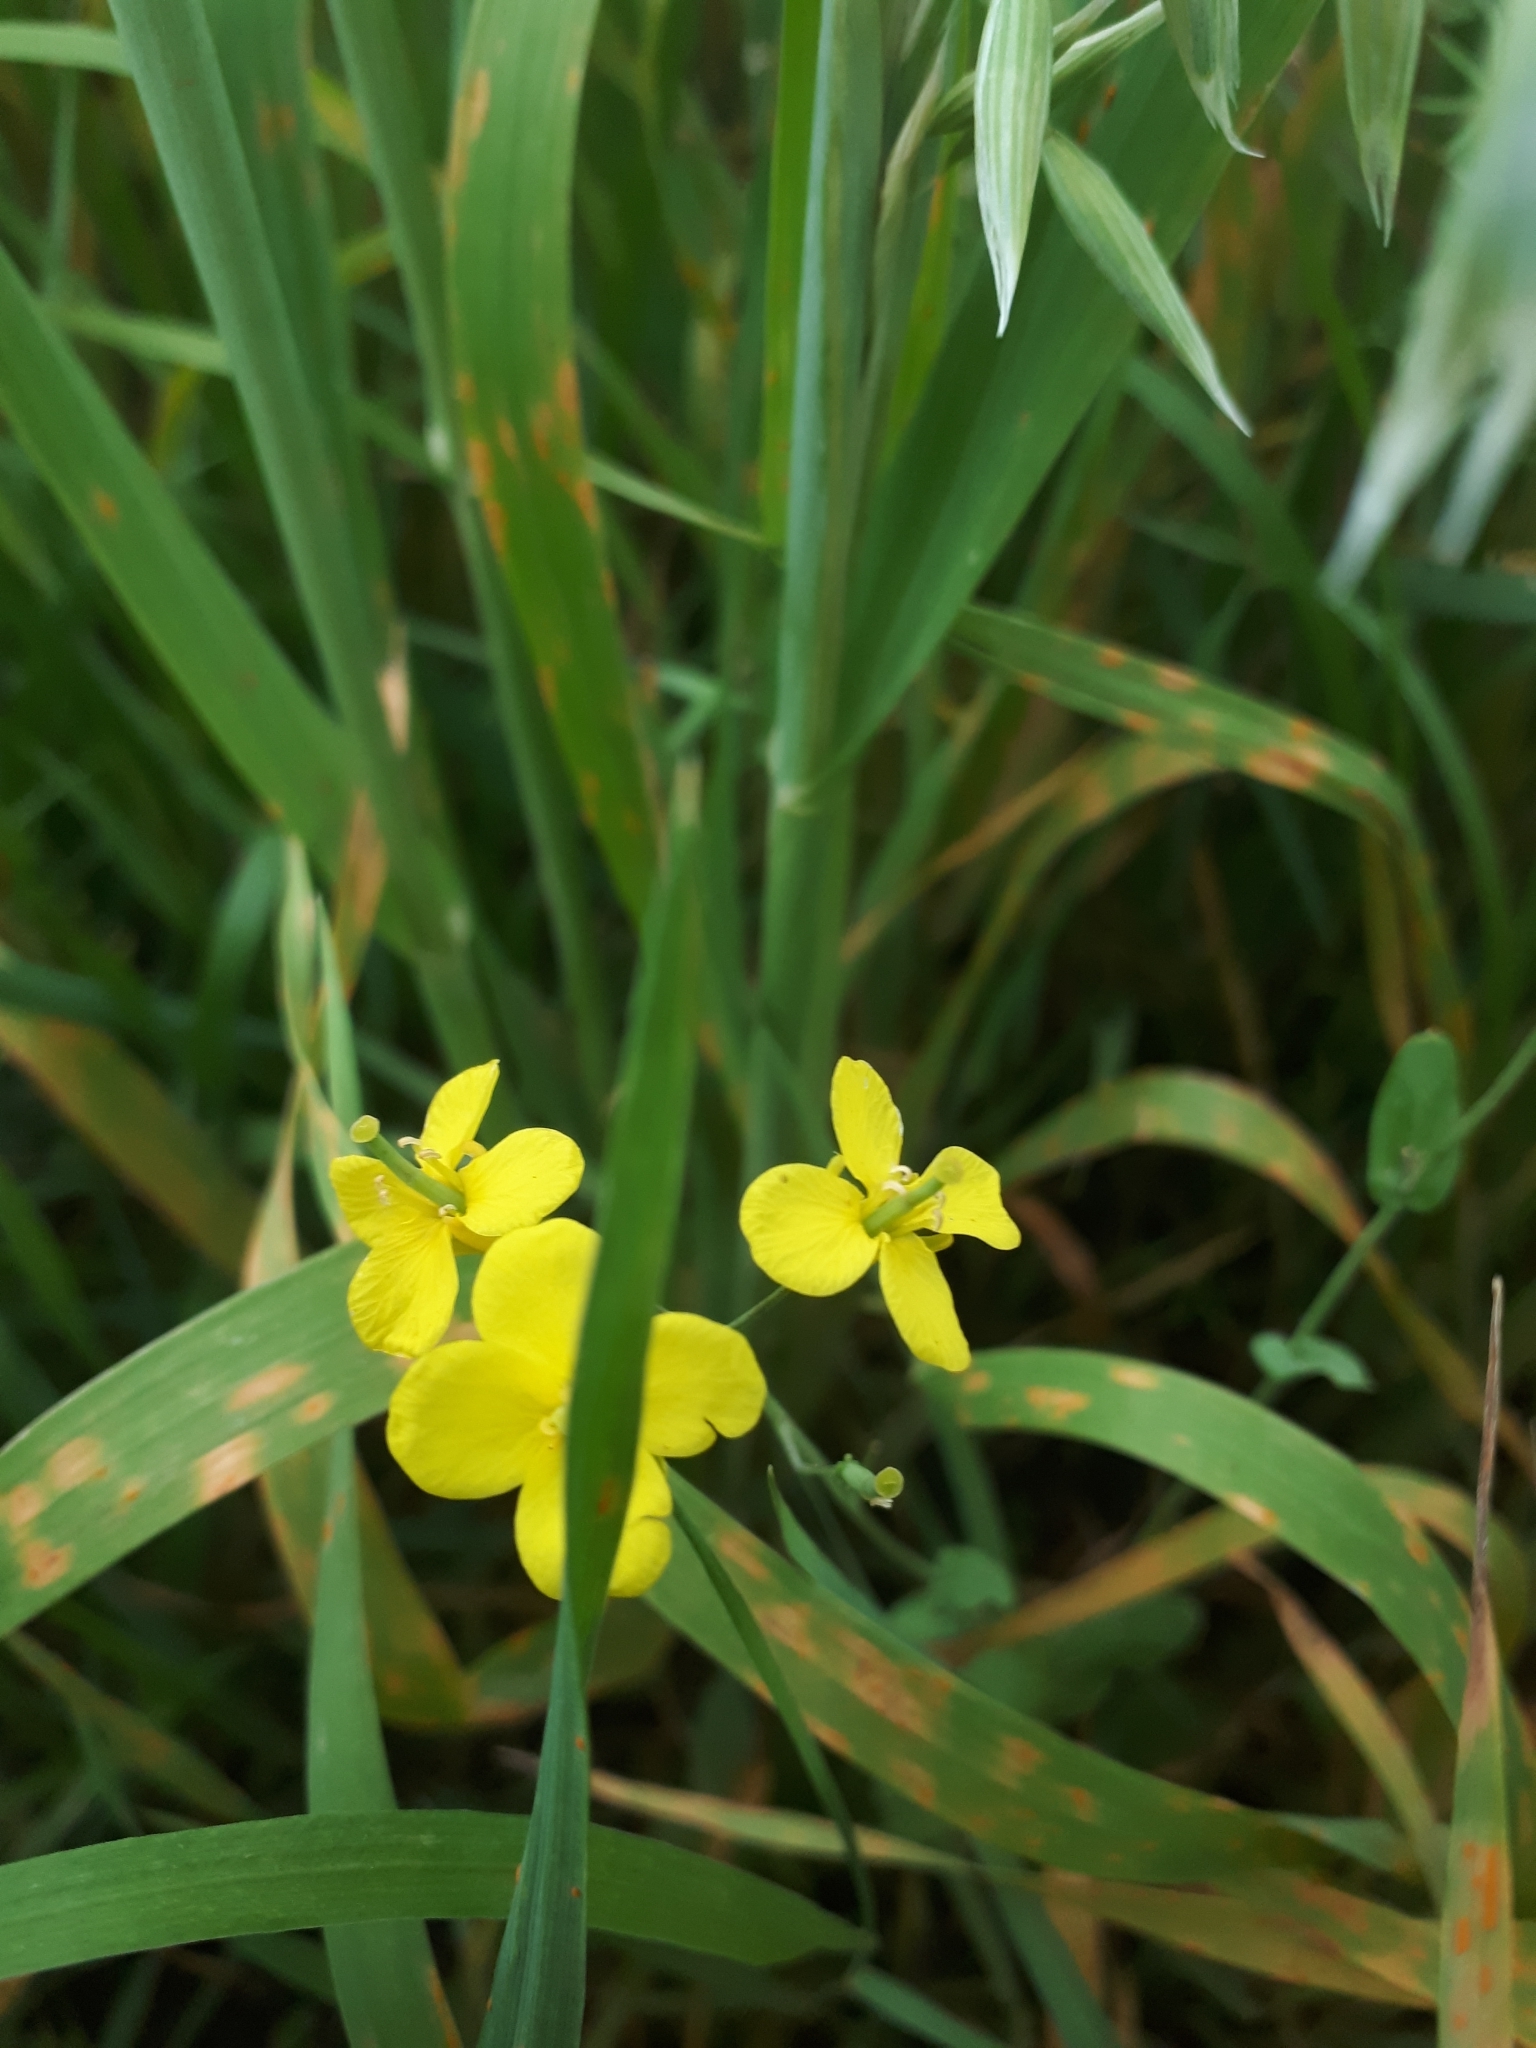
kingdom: Plantae
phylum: Tracheophyta
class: Magnoliopsida
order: Brassicales
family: Brassicaceae
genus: Brassica
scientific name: Brassica rapa
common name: Field mustard
